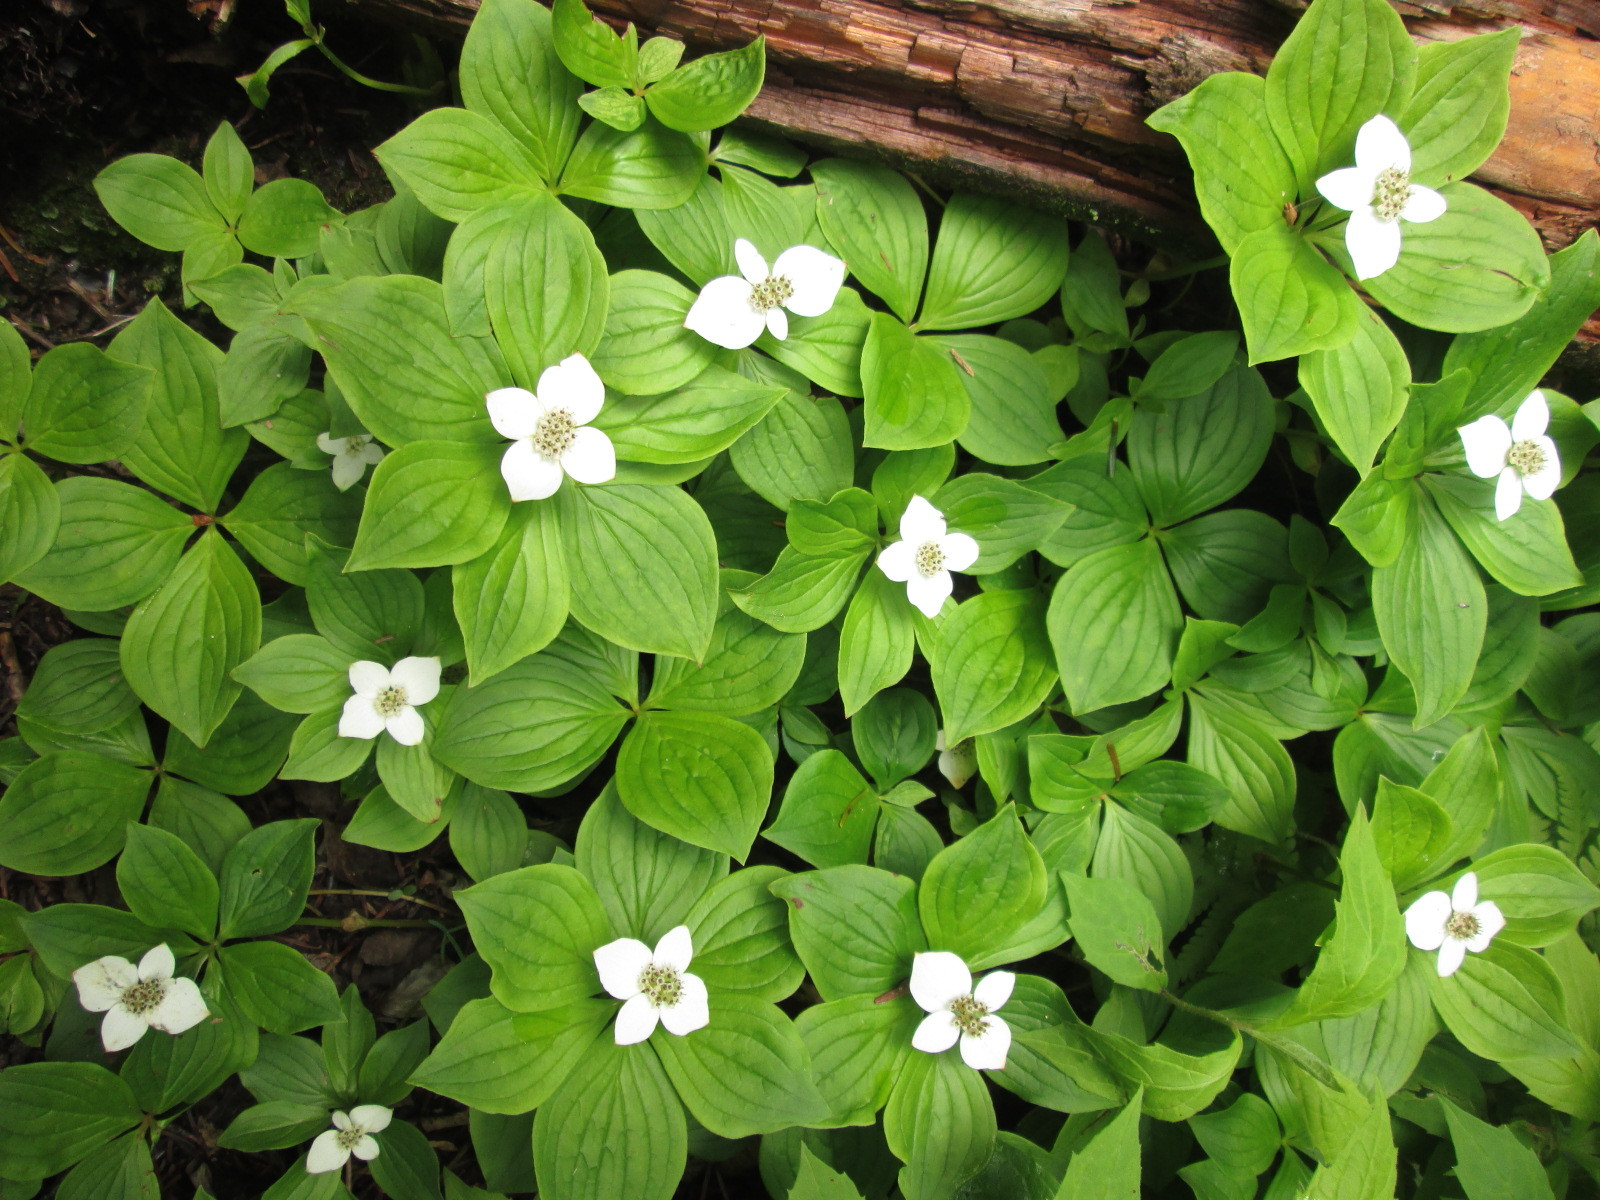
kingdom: Plantae
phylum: Tracheophyta
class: Magnoliopsida
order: Cornales
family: Cornaceae
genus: Cornus
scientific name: Cornus canadensis
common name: Creeping dogwood
